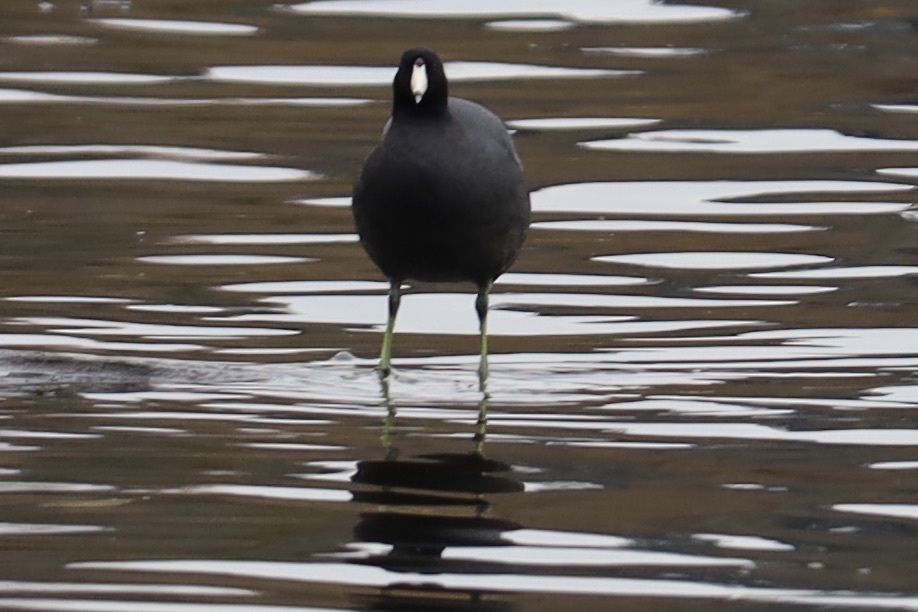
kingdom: Animalia
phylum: Chordata
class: Aves
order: Gruiformes
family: Rallidae
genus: Fulica
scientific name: Fulica americana
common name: American coot
